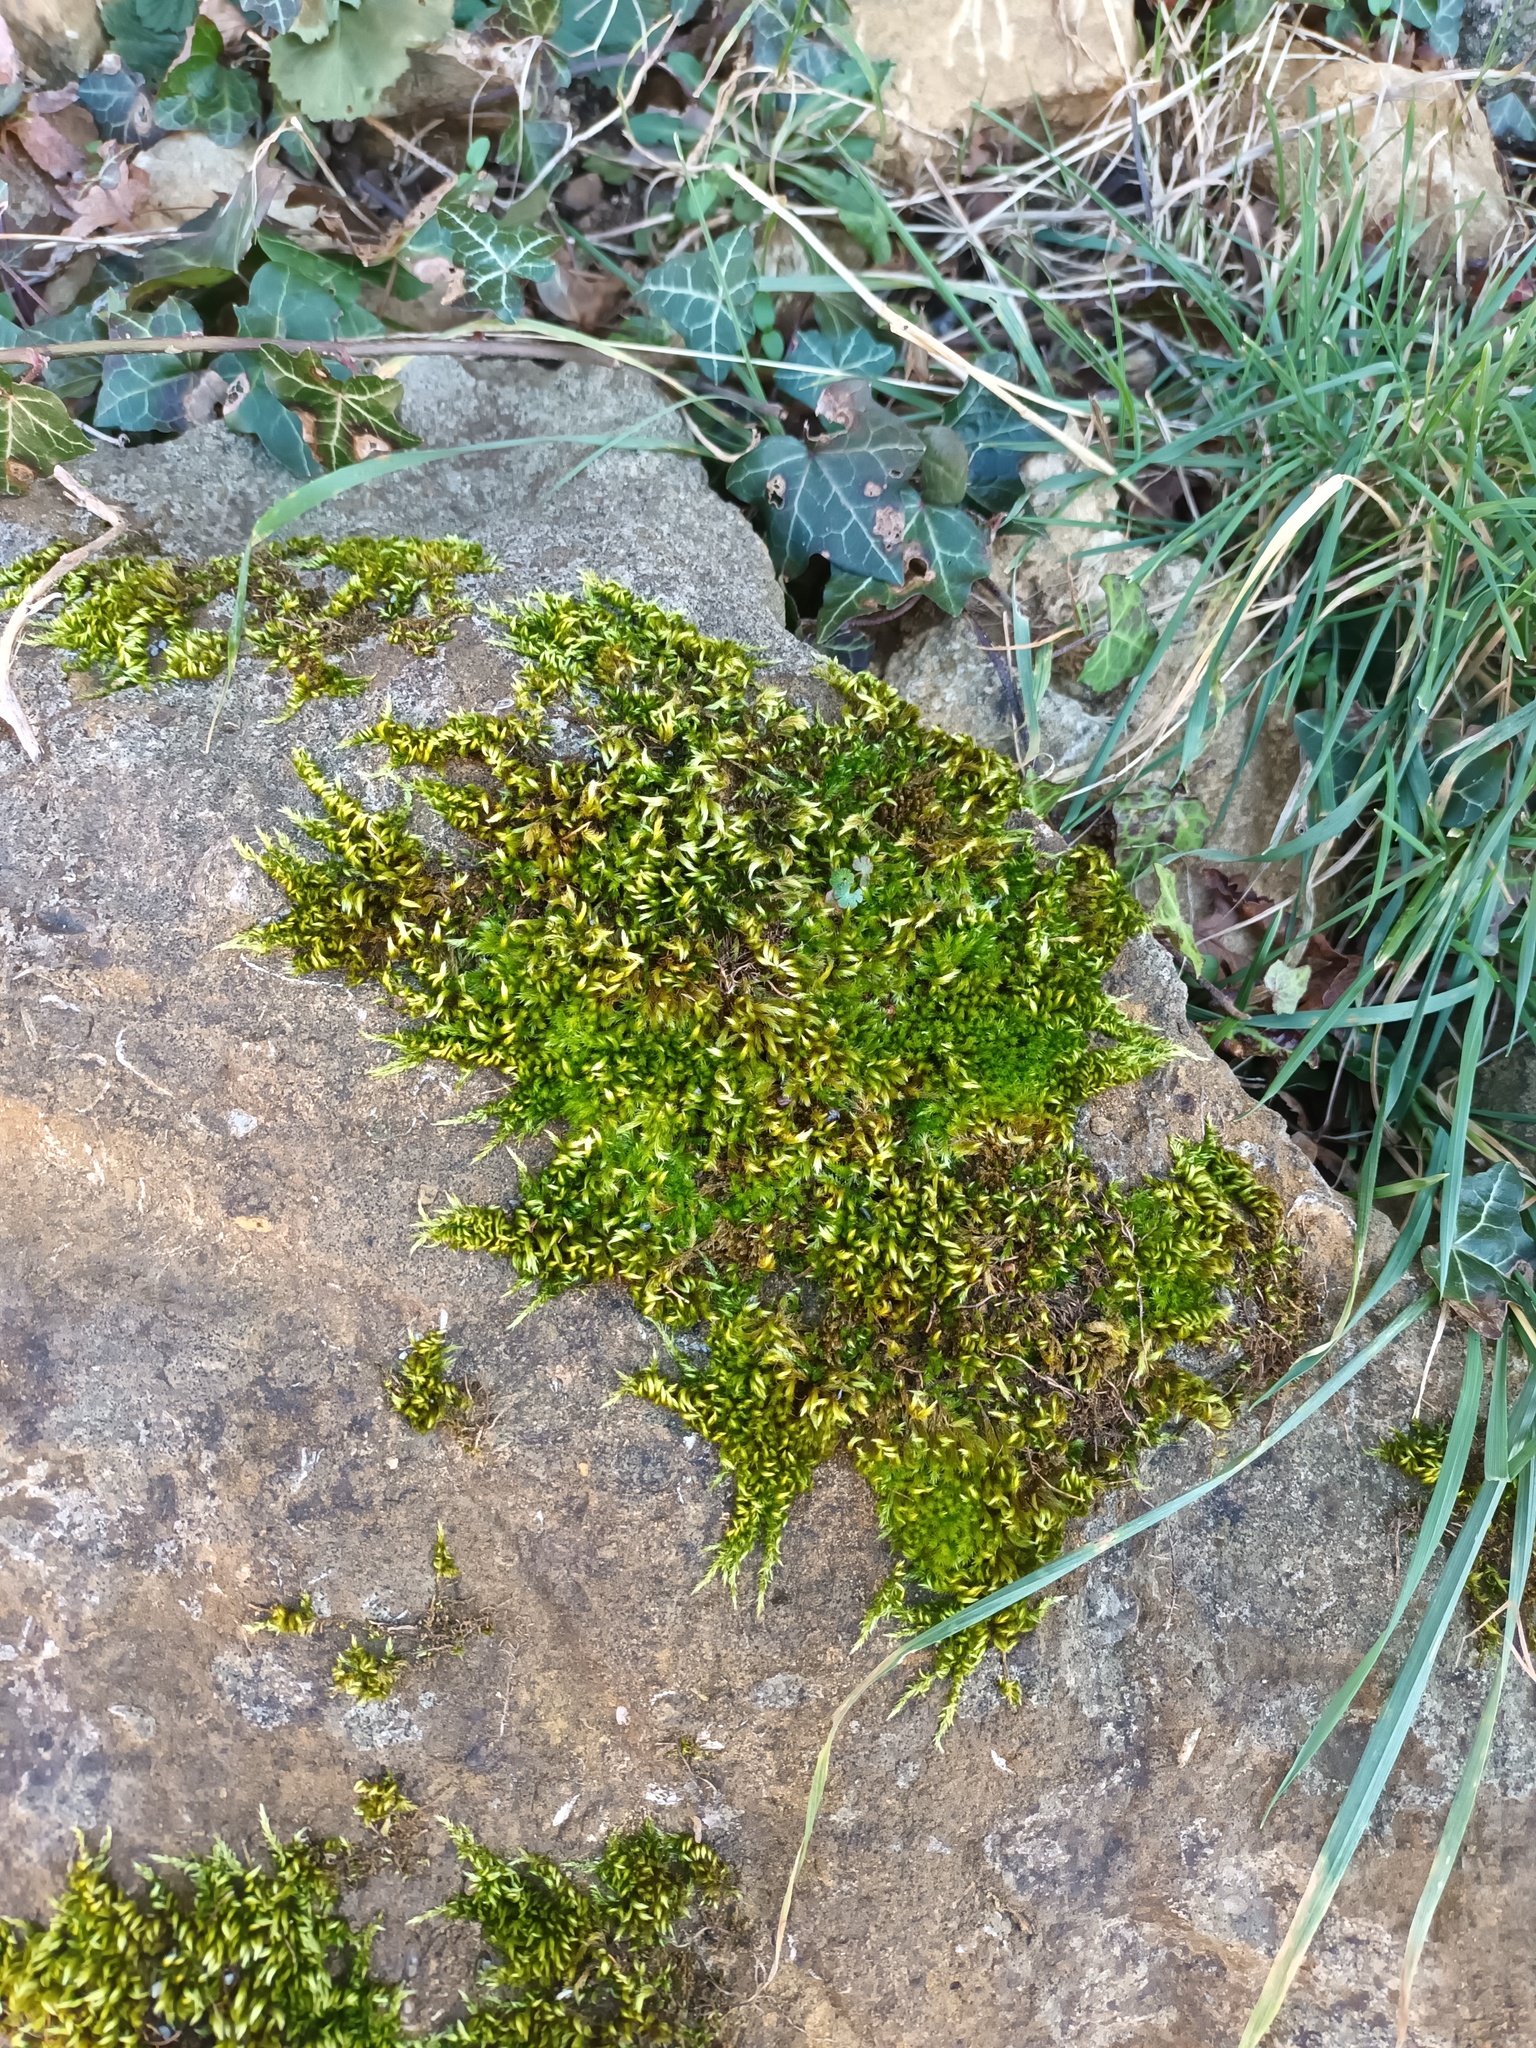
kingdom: Plantae
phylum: Bryophyta
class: Bryopsida
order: Hypnales
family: Brachytheciaceae
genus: Homalothecium
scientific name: Homalothecium sericeum
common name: Silky wall feather-moss
